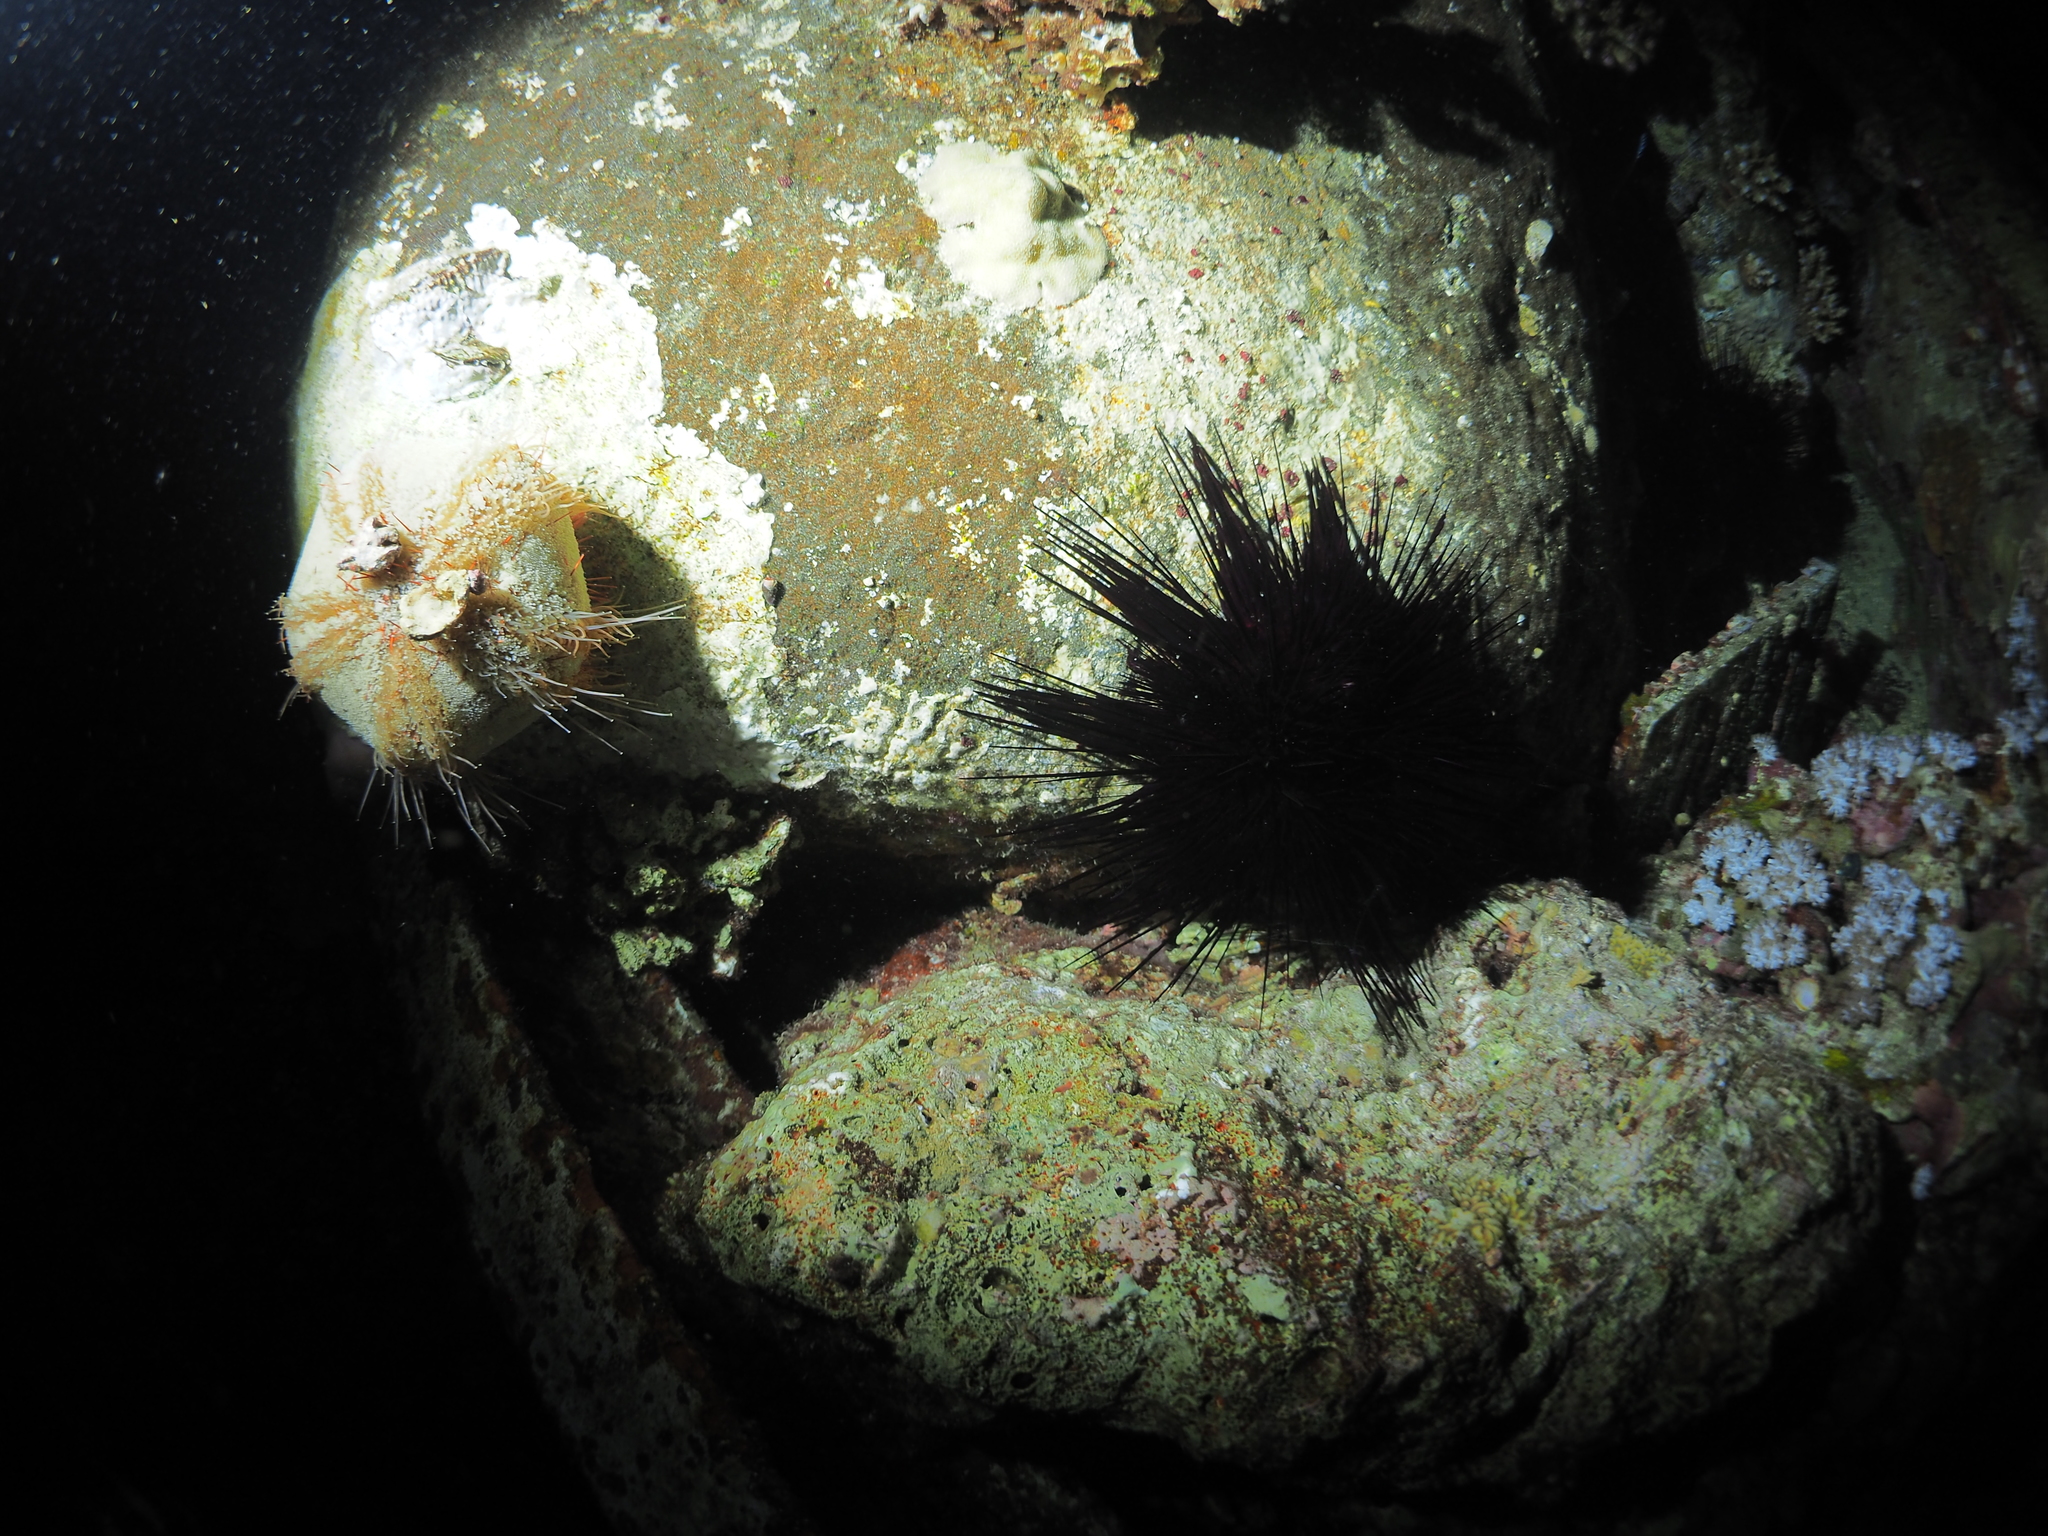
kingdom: Animalia
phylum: Echinodermata
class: Echinoidea
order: Diadematoida
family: Diadematidae
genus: Echinothrix
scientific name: Echinothrix diadema
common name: Schwarzer diademseeigel
